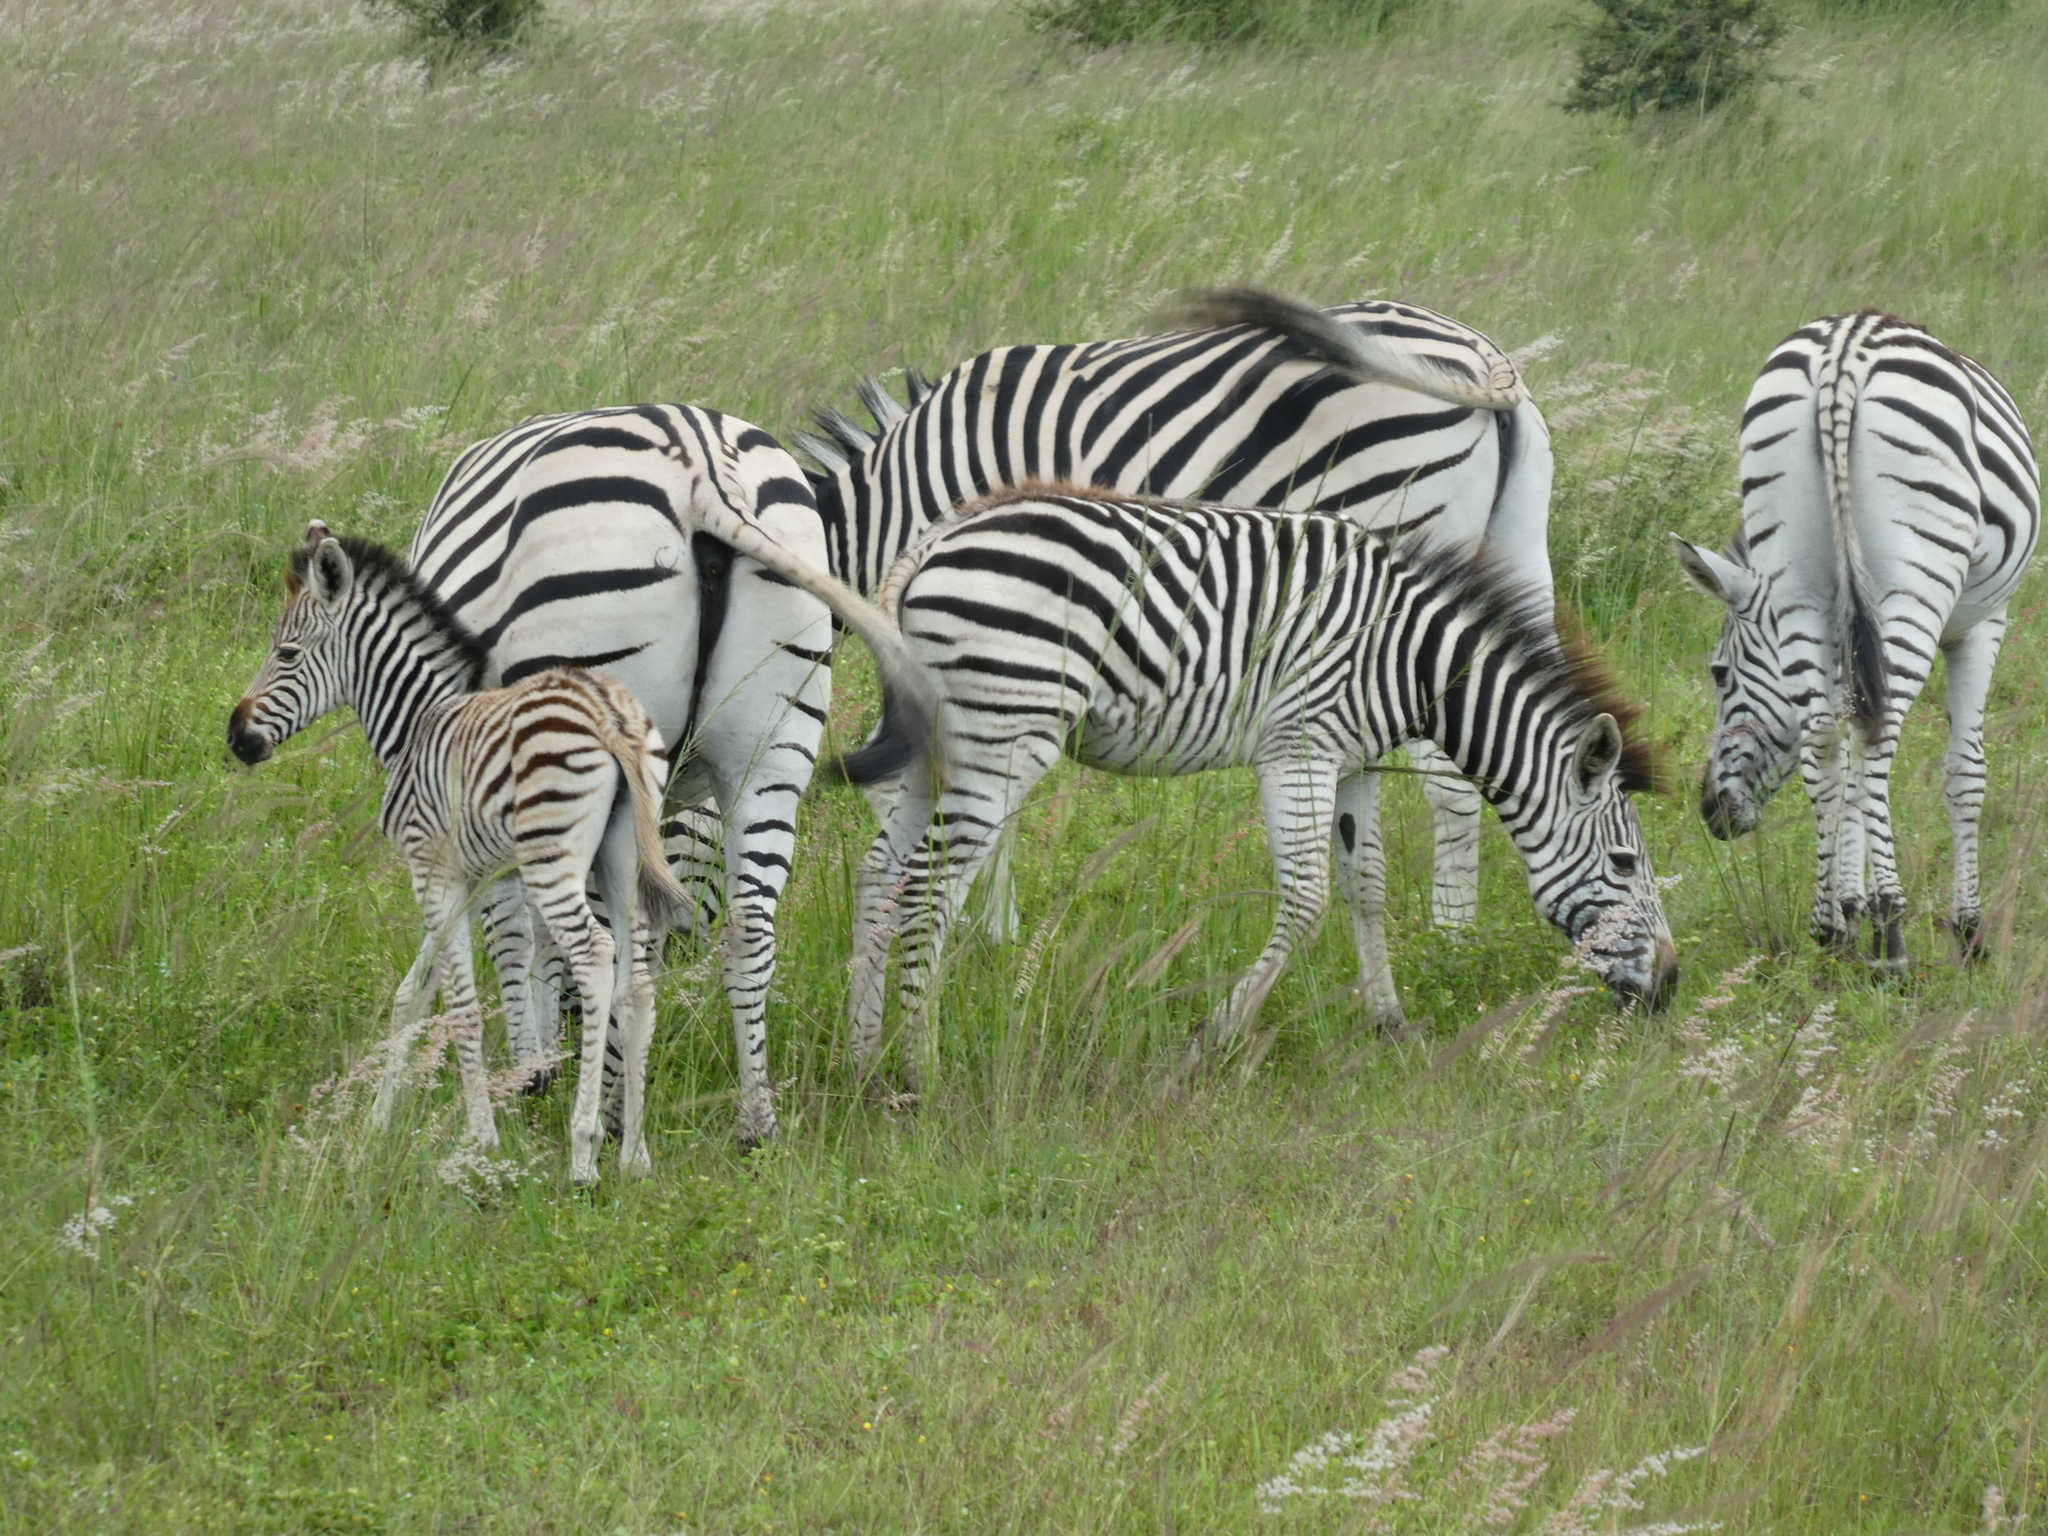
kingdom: Animalia
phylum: Chordata
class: Mammalia
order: Perissodactyla
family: Equidae
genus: Equus
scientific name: Equus quagga
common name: Plains zebra
